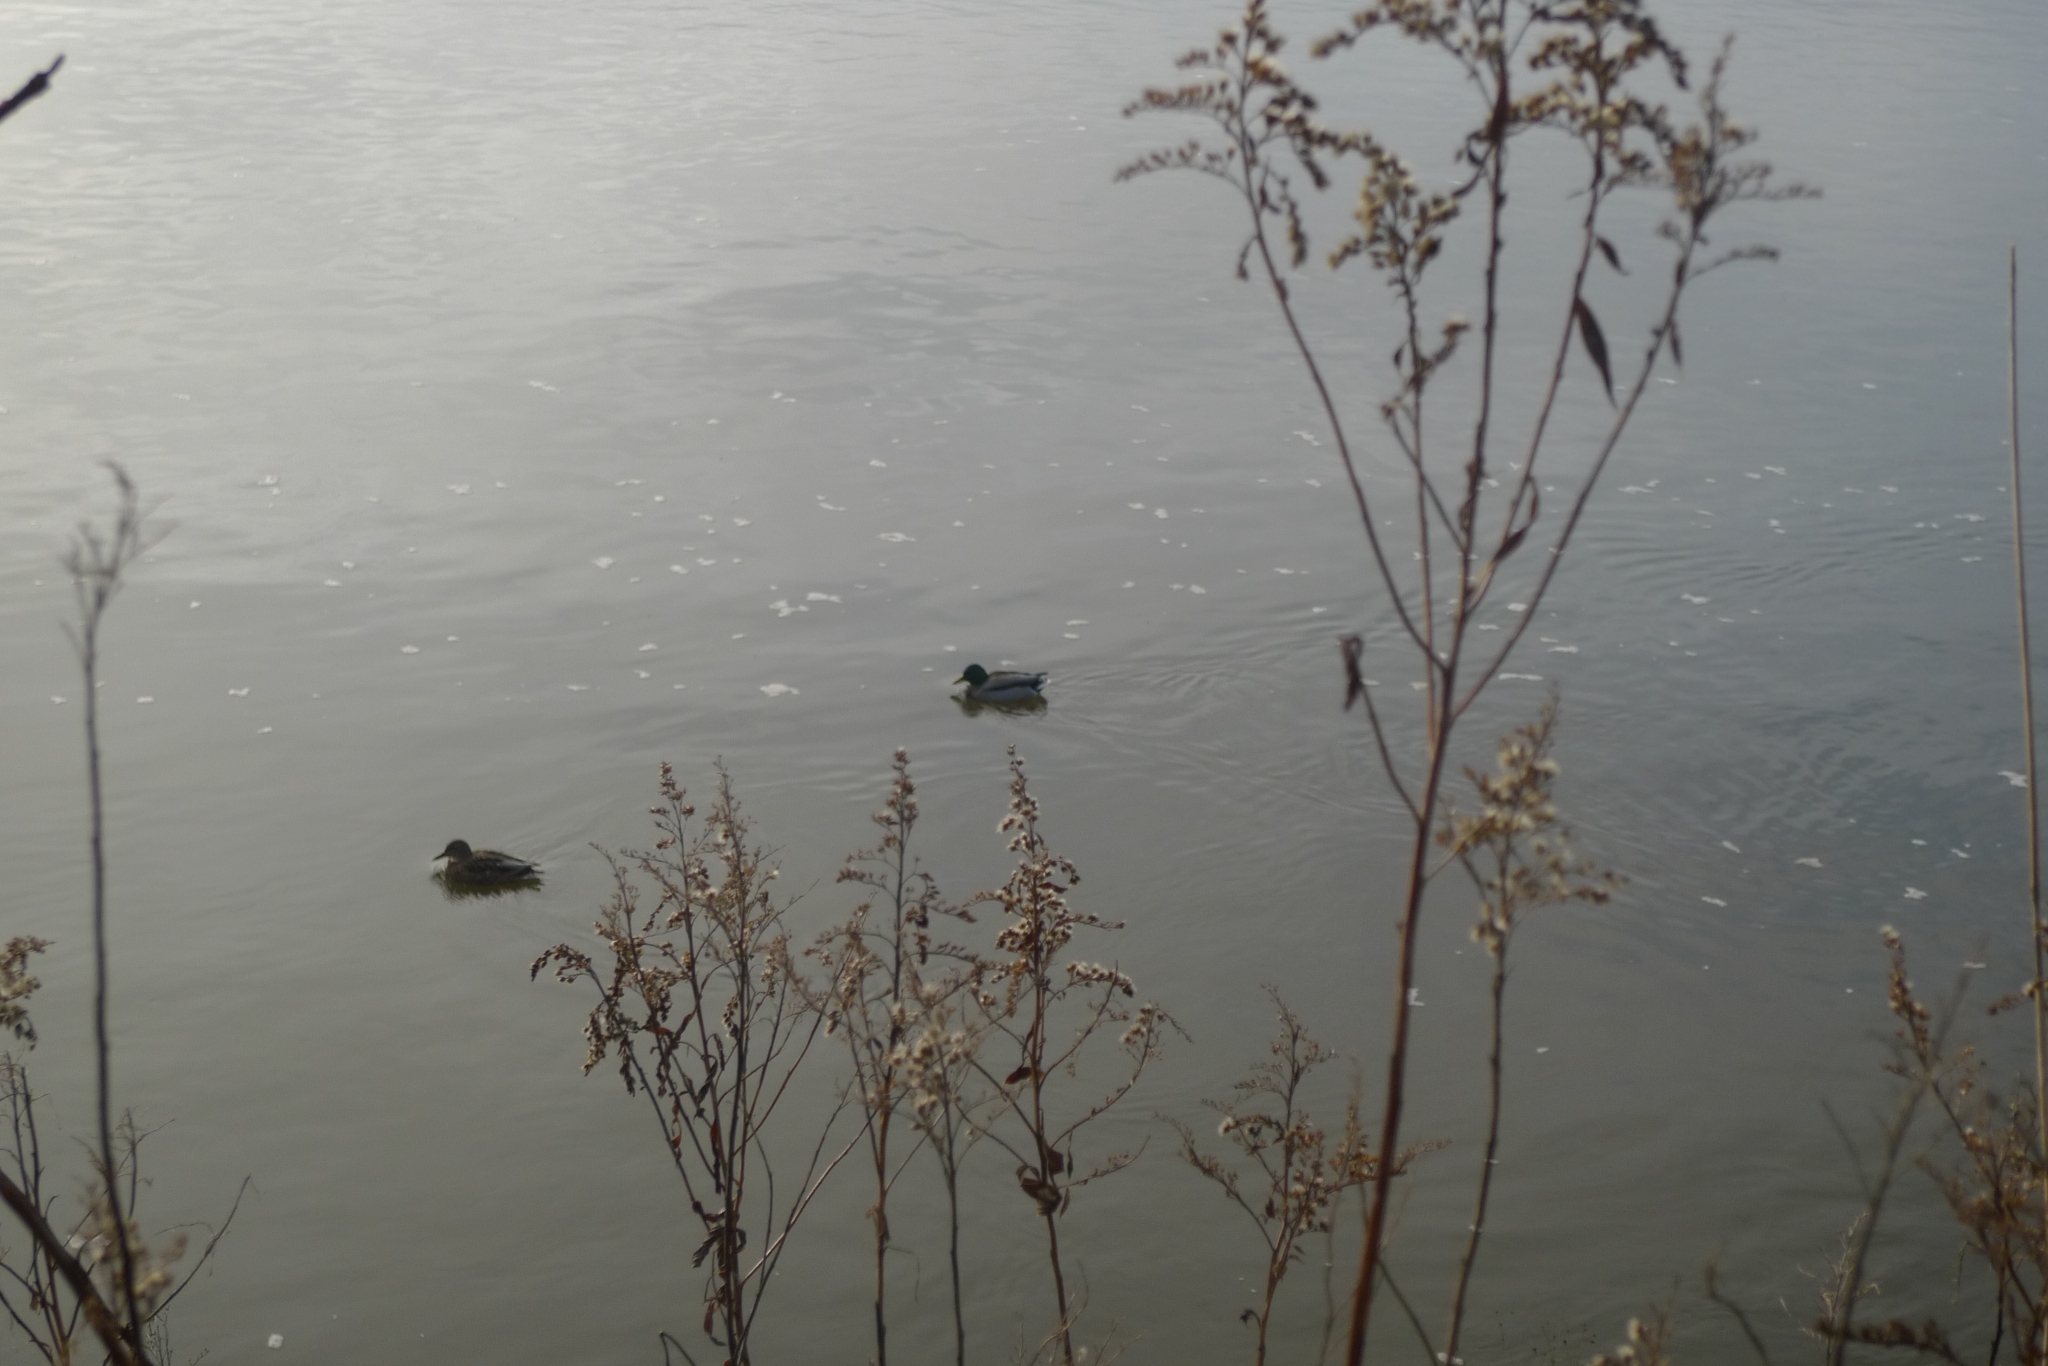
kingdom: Animalia
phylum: Chordata
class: Aves
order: Anseriformes
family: Anatidae
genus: Anas
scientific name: Anas platyrhynchos
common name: Mallard
